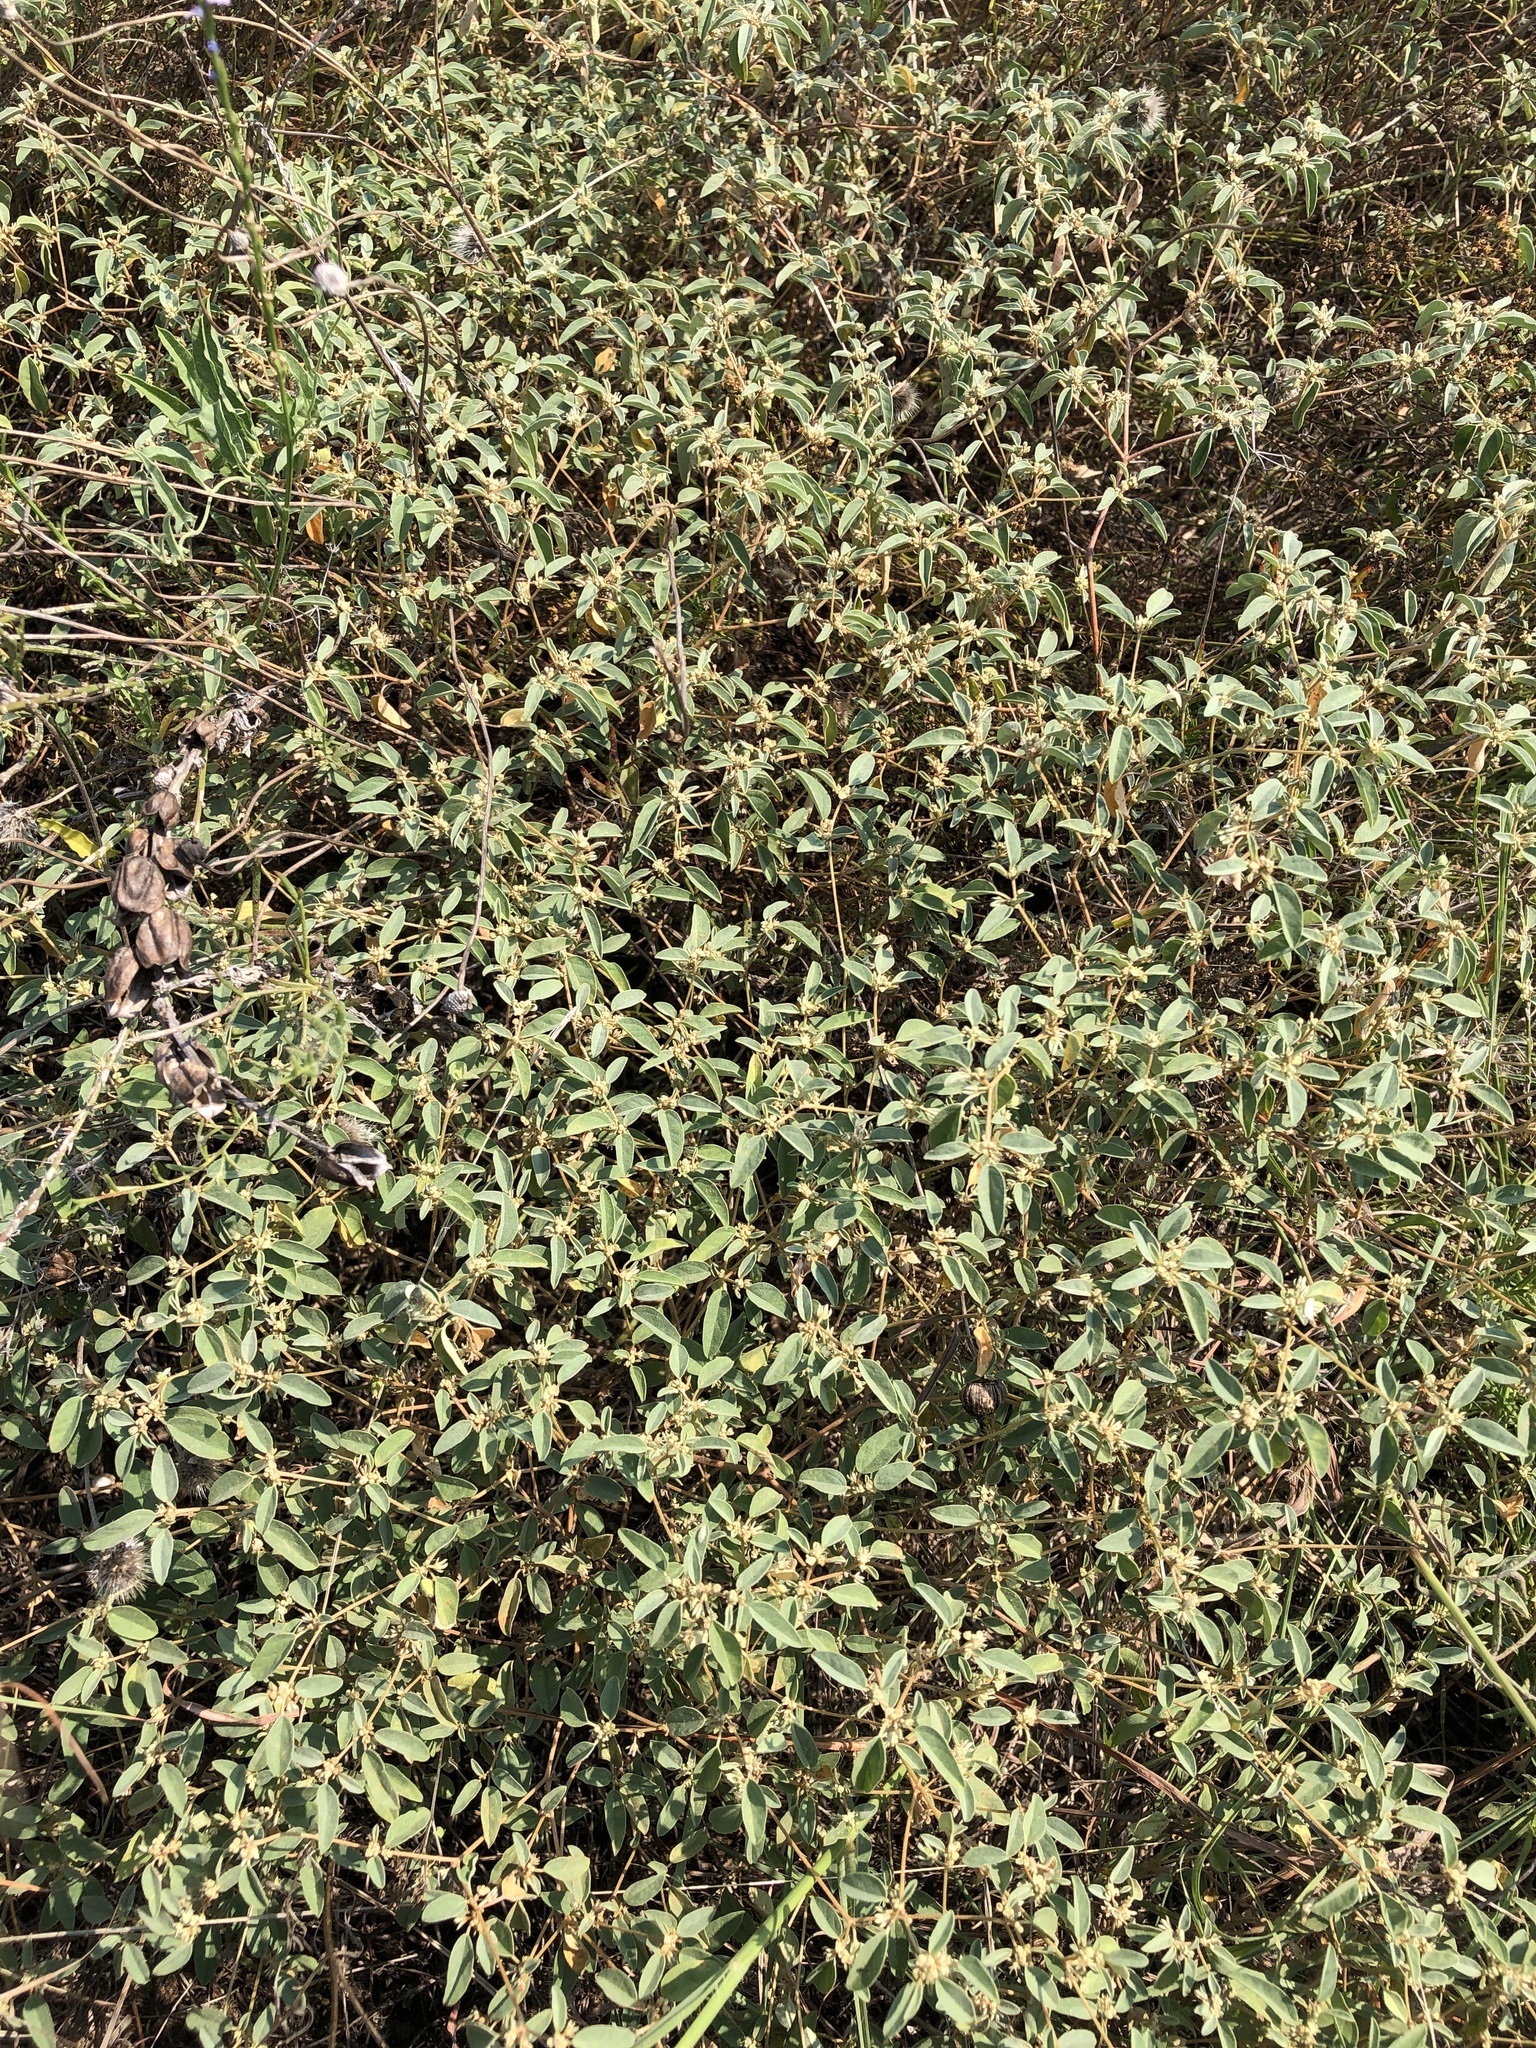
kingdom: Plantae
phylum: Tracheophyta
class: Magnoliopsida
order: Malpighiales
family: Euphorbiaceae
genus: Croton
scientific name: Croton monanthogynus
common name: One-seed croton
